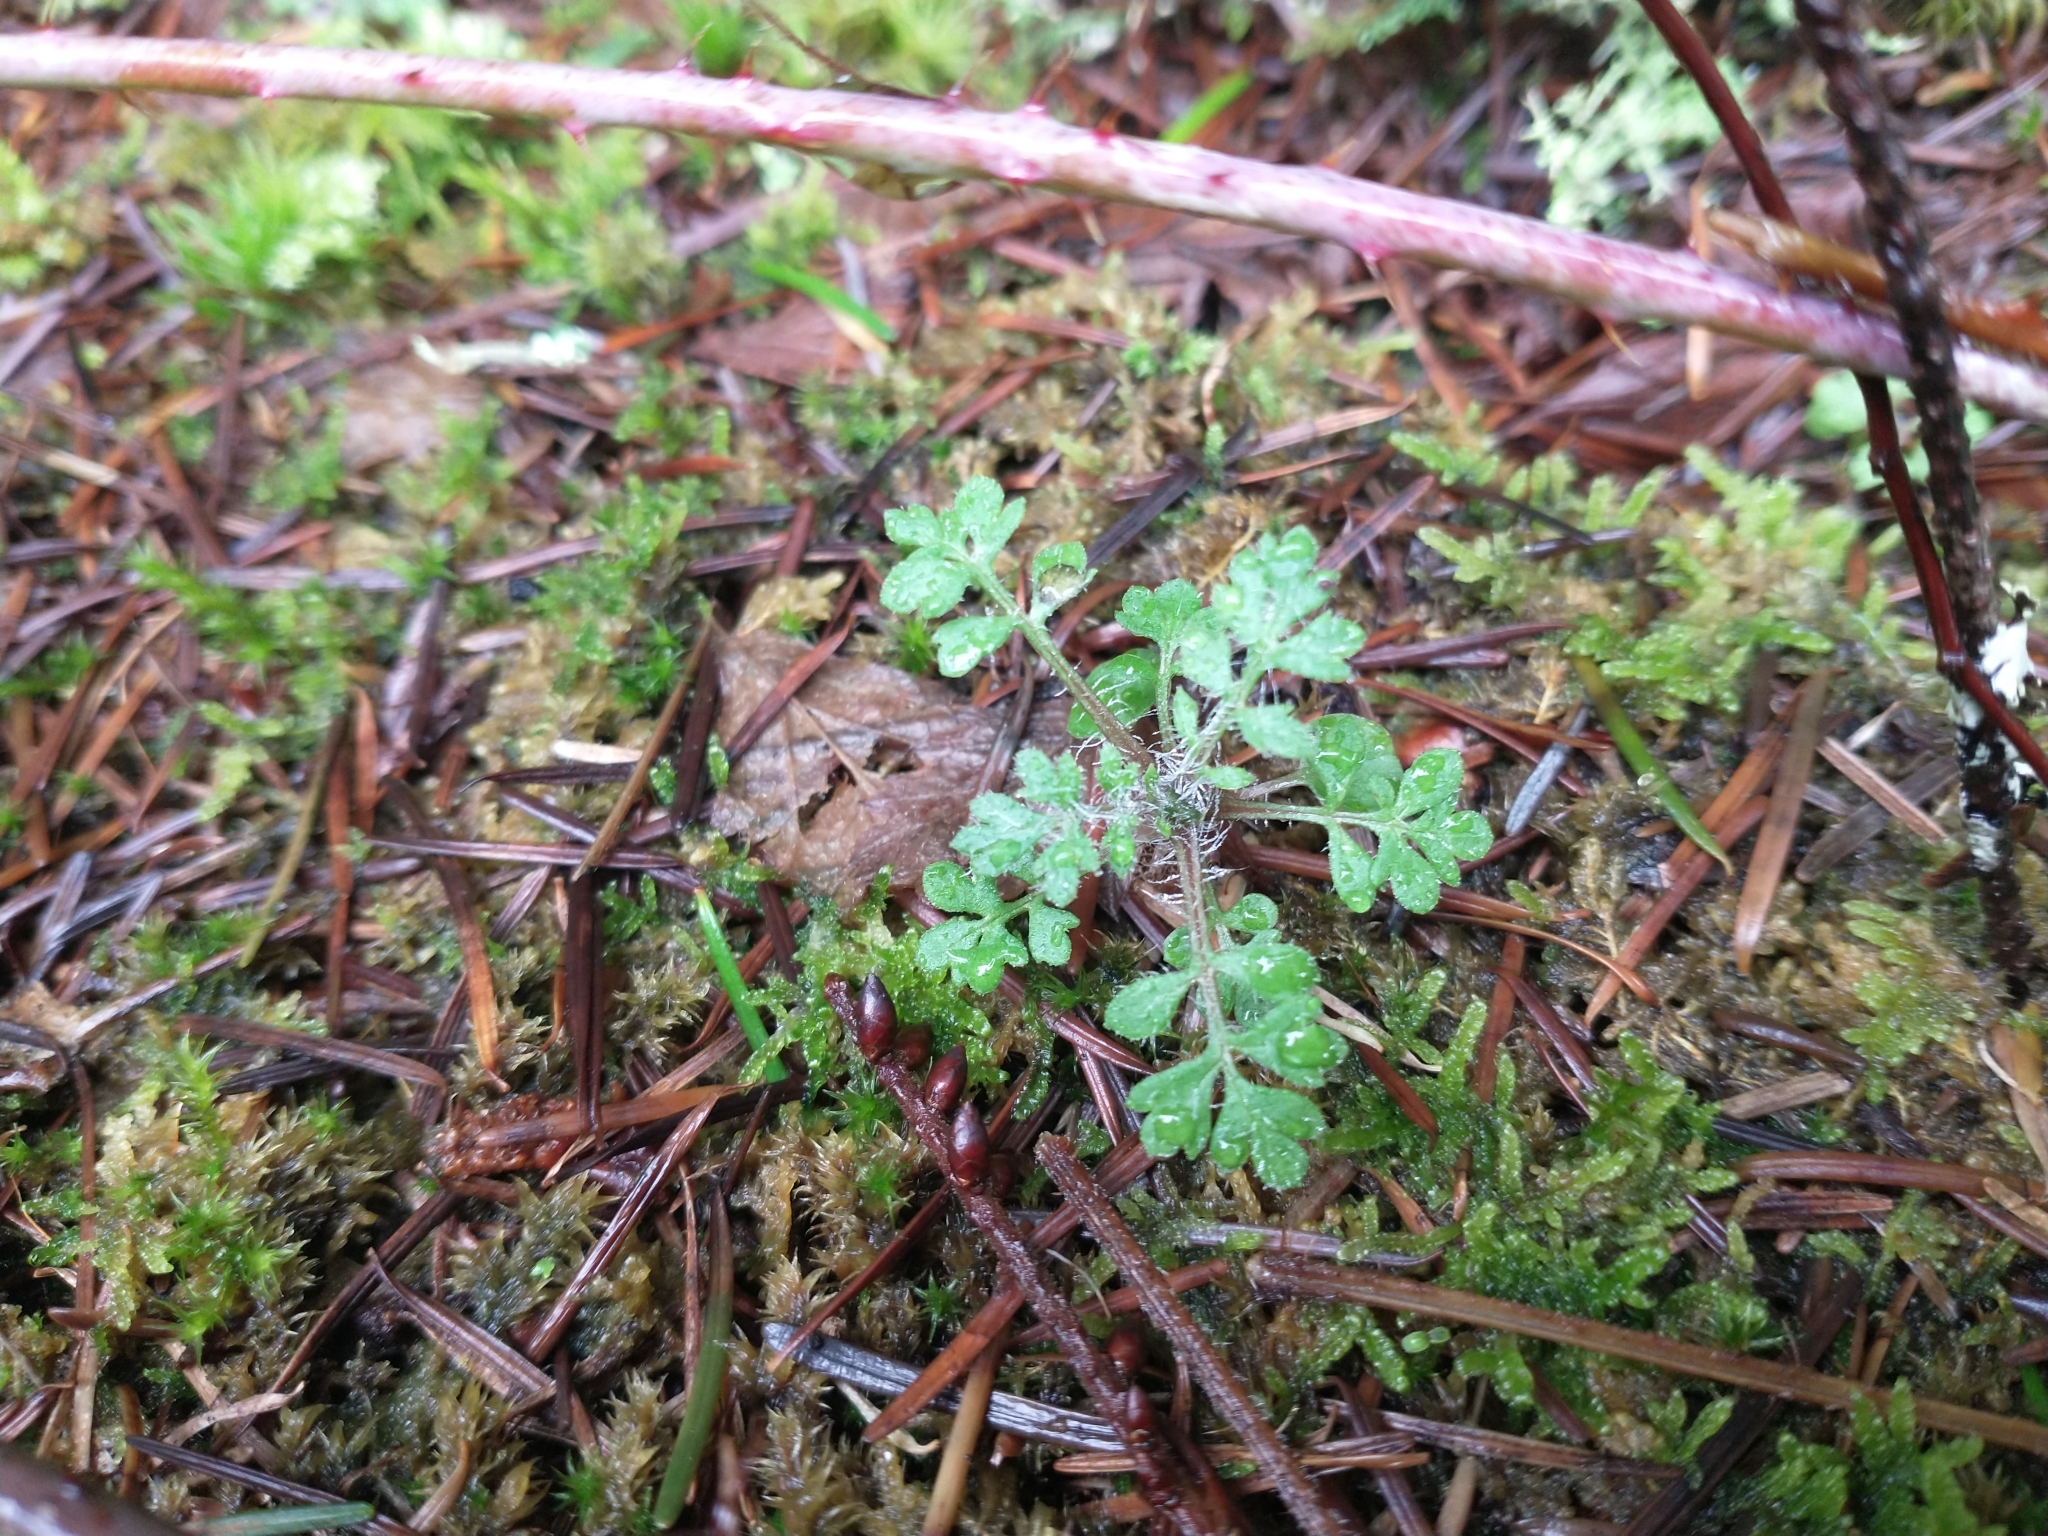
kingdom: Plantae
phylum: Tracheophyta
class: Magnoliopsida
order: Ericales
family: Polemoniaceae
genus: Collomia
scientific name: Collomia heterophylla
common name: Variable-leaved collomia
